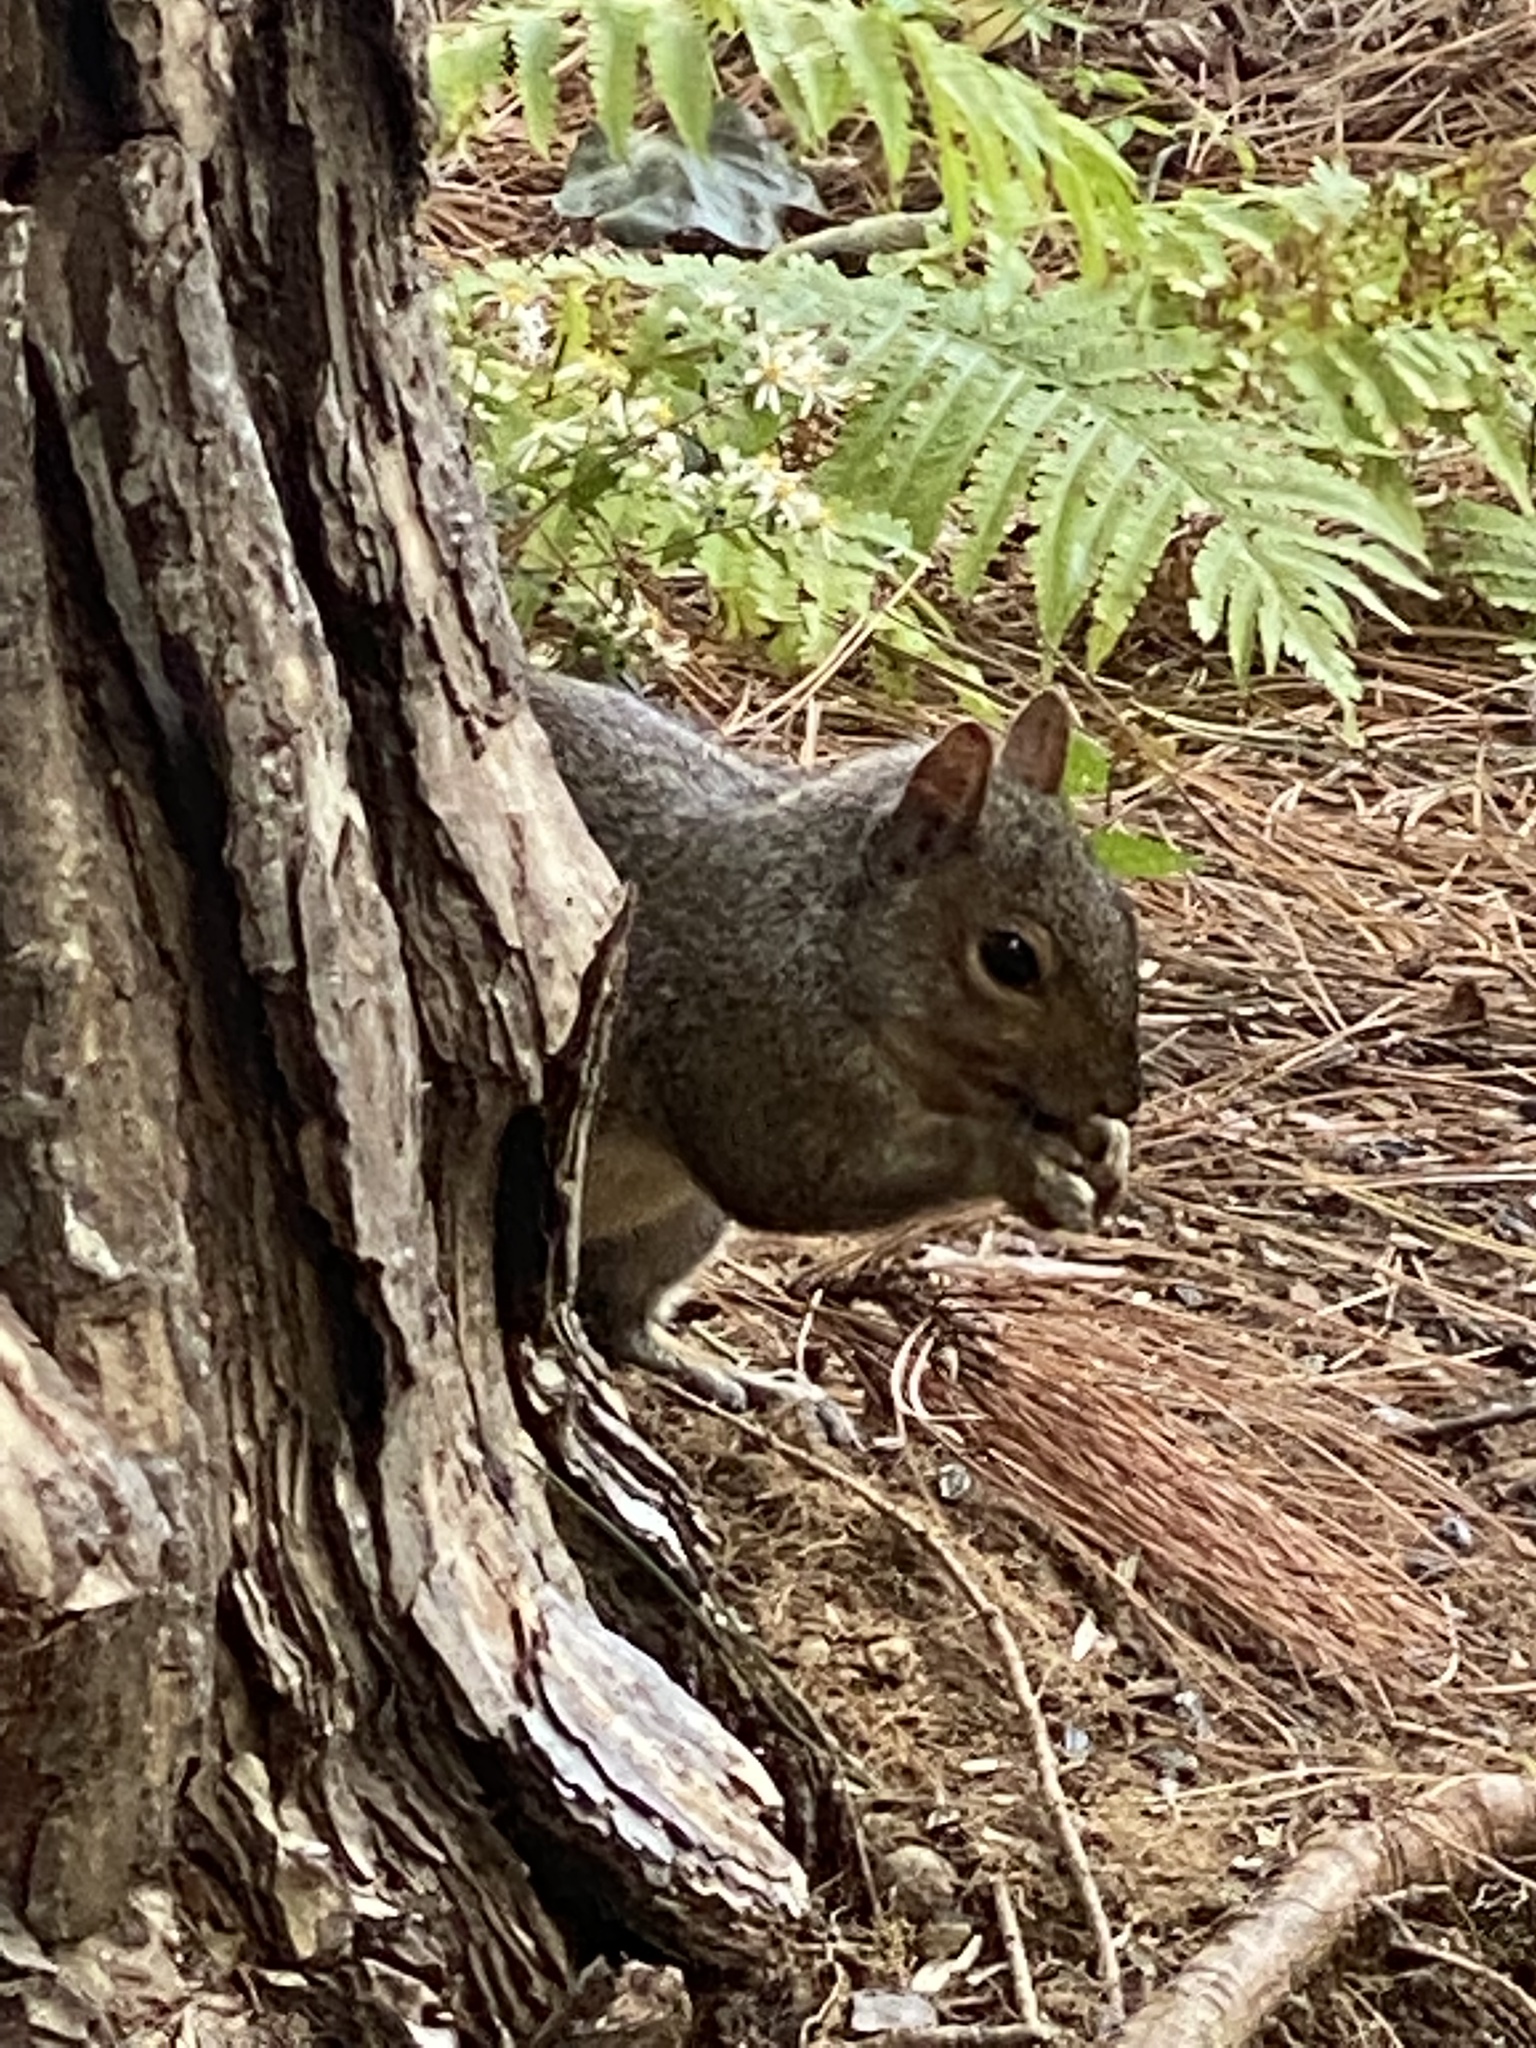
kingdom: Animalia
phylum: Chordata
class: Mammalia
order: Rodentia
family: Sciuridae
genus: Sciurus
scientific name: Sciurus carolinensis
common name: Eastern gray squirrel
